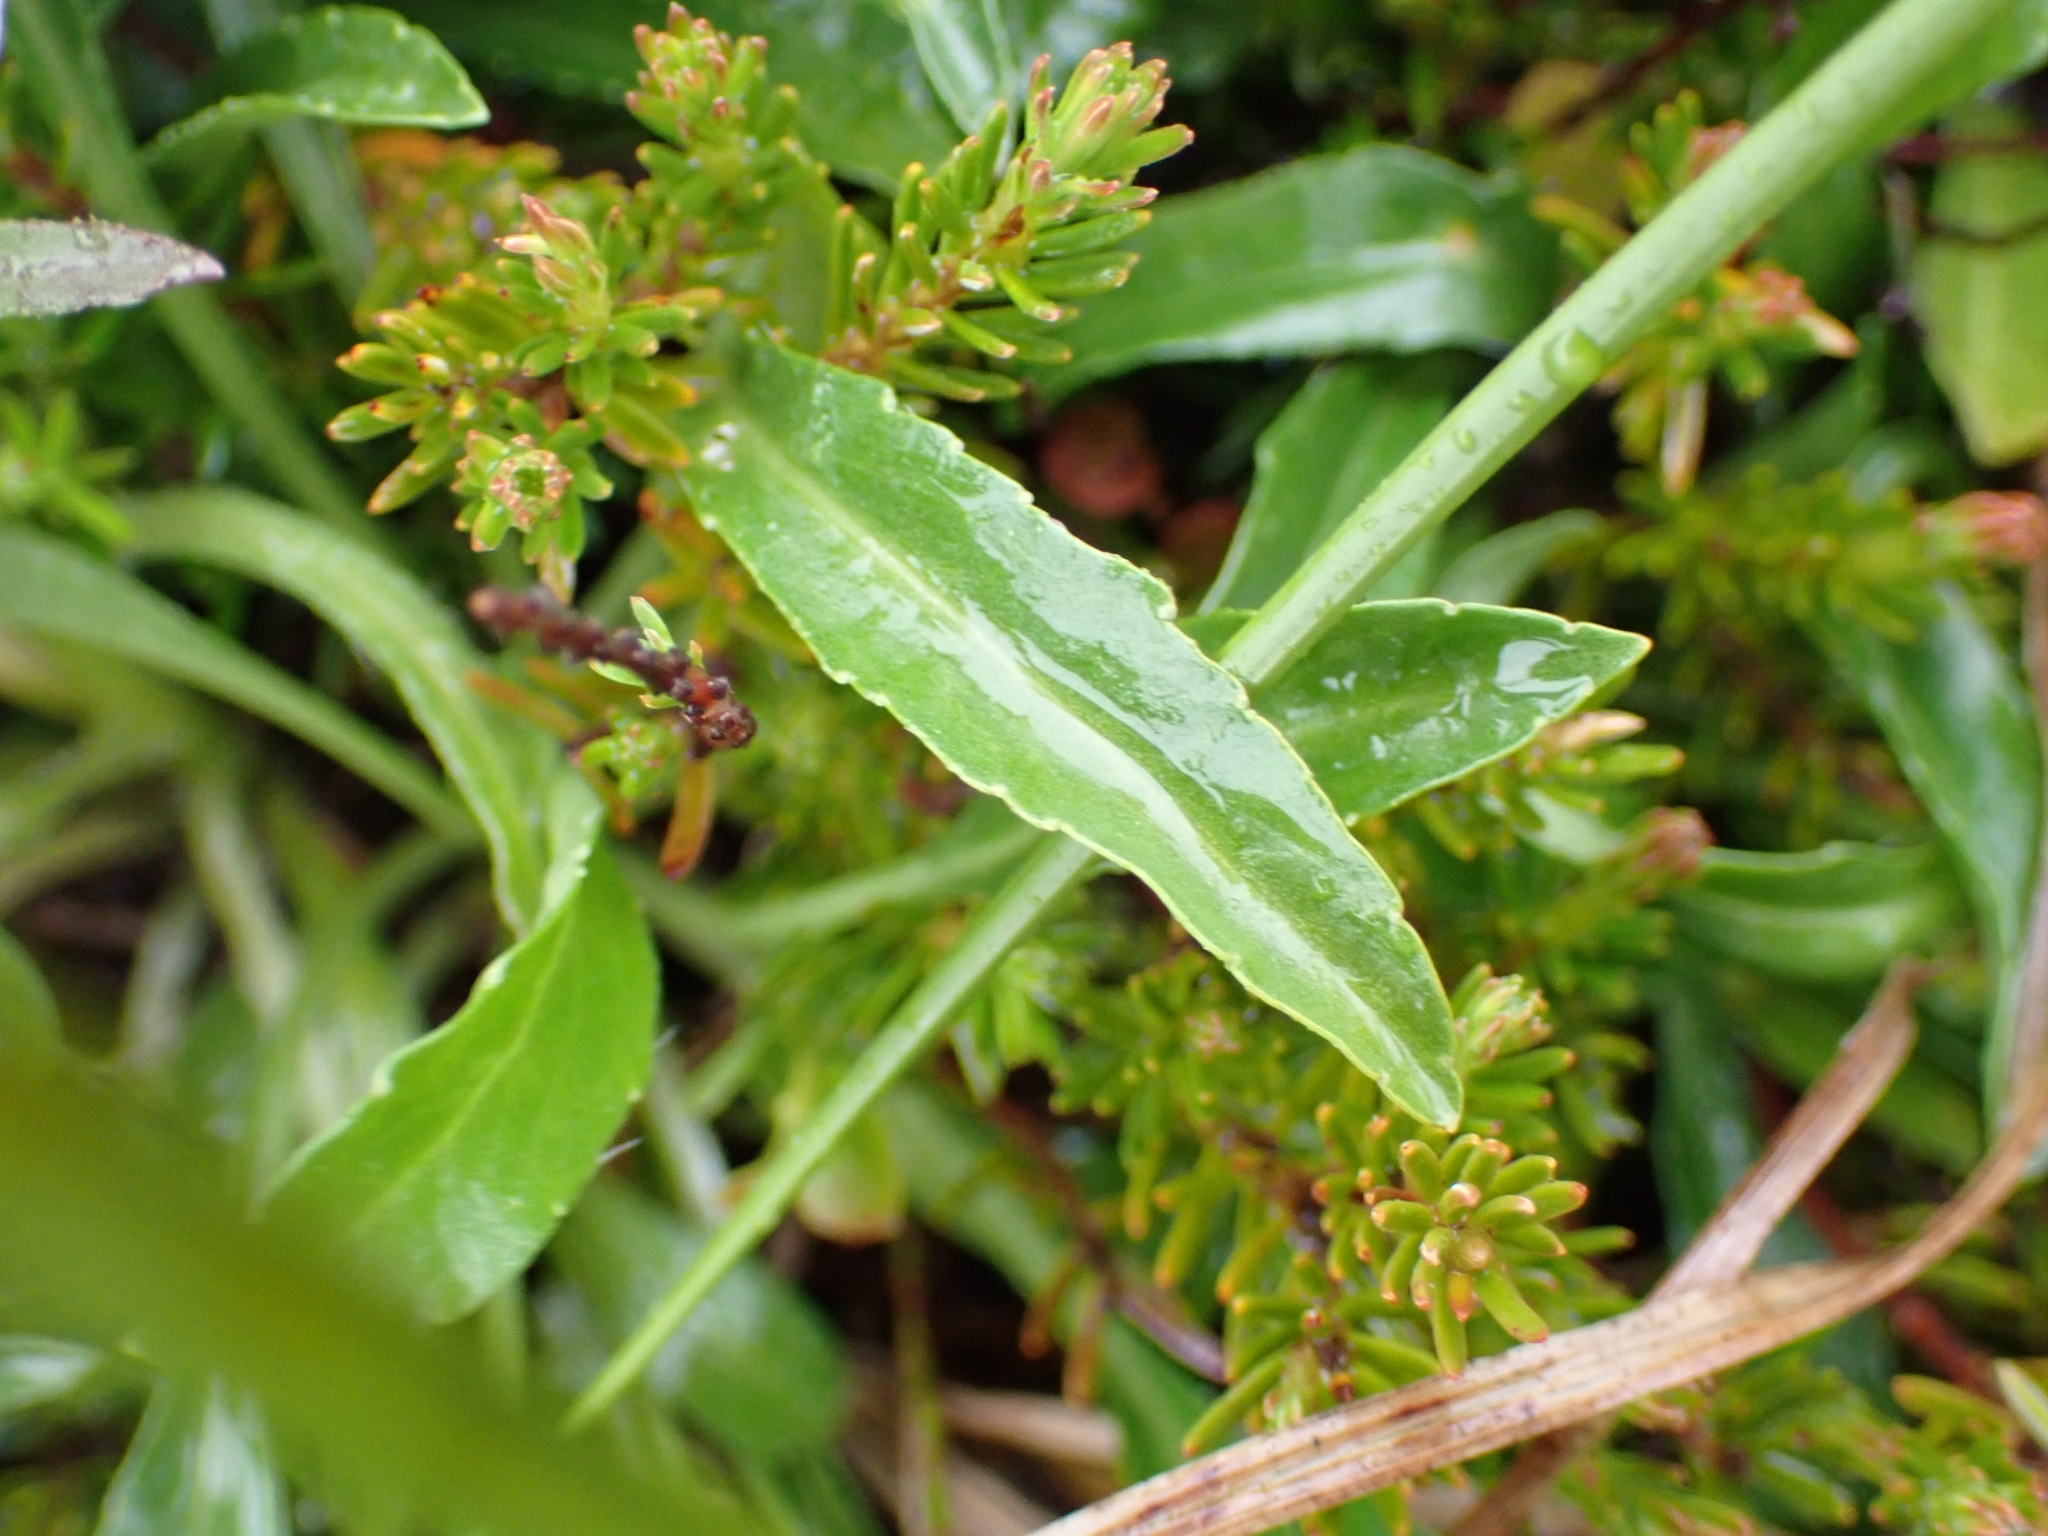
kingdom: Plantae
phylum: Tracheophyta
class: Magnoliopsida
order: Asterales
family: Campanulaceae
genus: Campanula
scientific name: Campanula alpina
